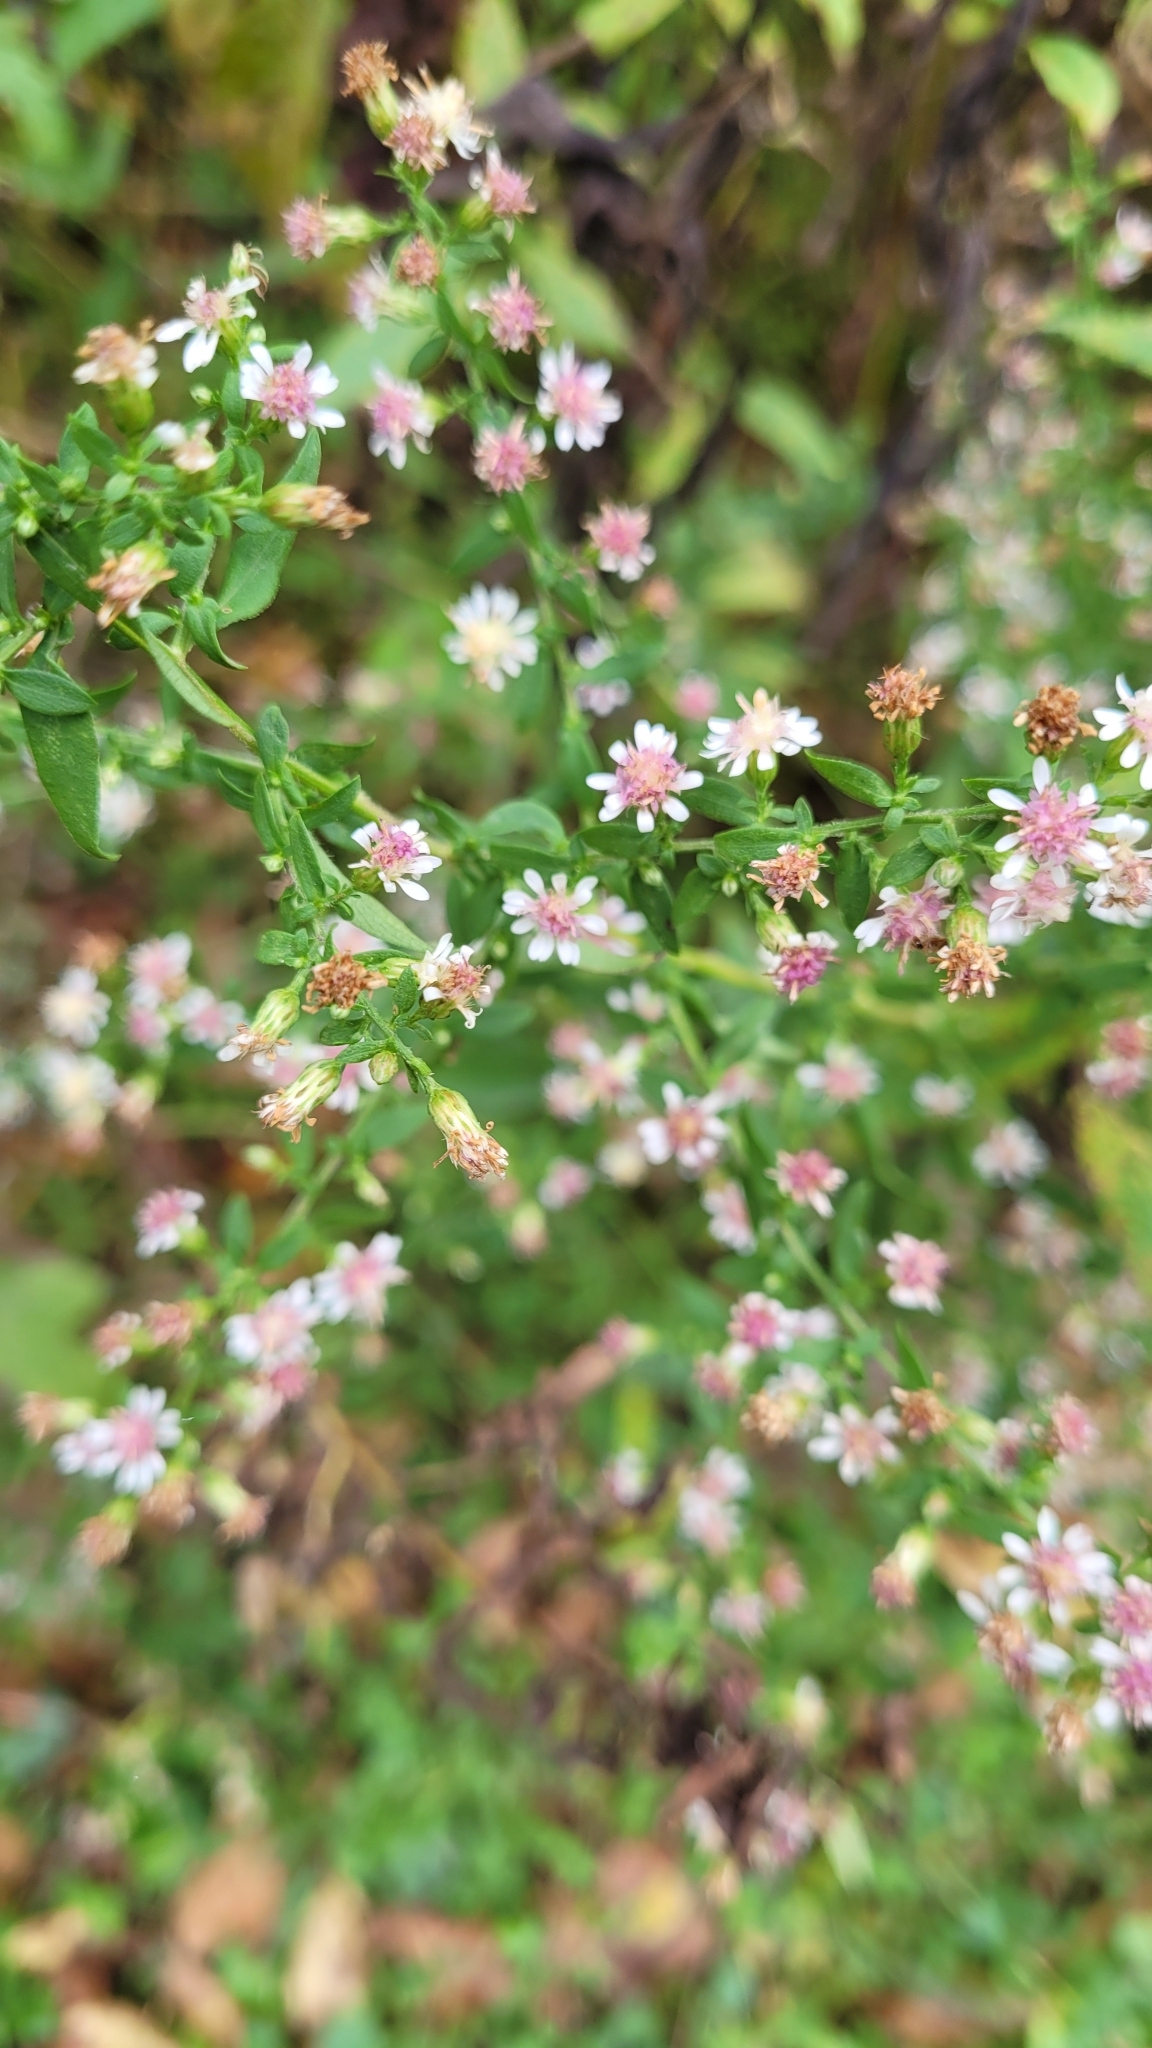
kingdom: Plantae
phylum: Tracheophyta
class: Magnoliopsida
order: Asterales
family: Asteraceae
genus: Symphyotrichum
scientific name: Symphyotrichum lateriflorum
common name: Calico aster
